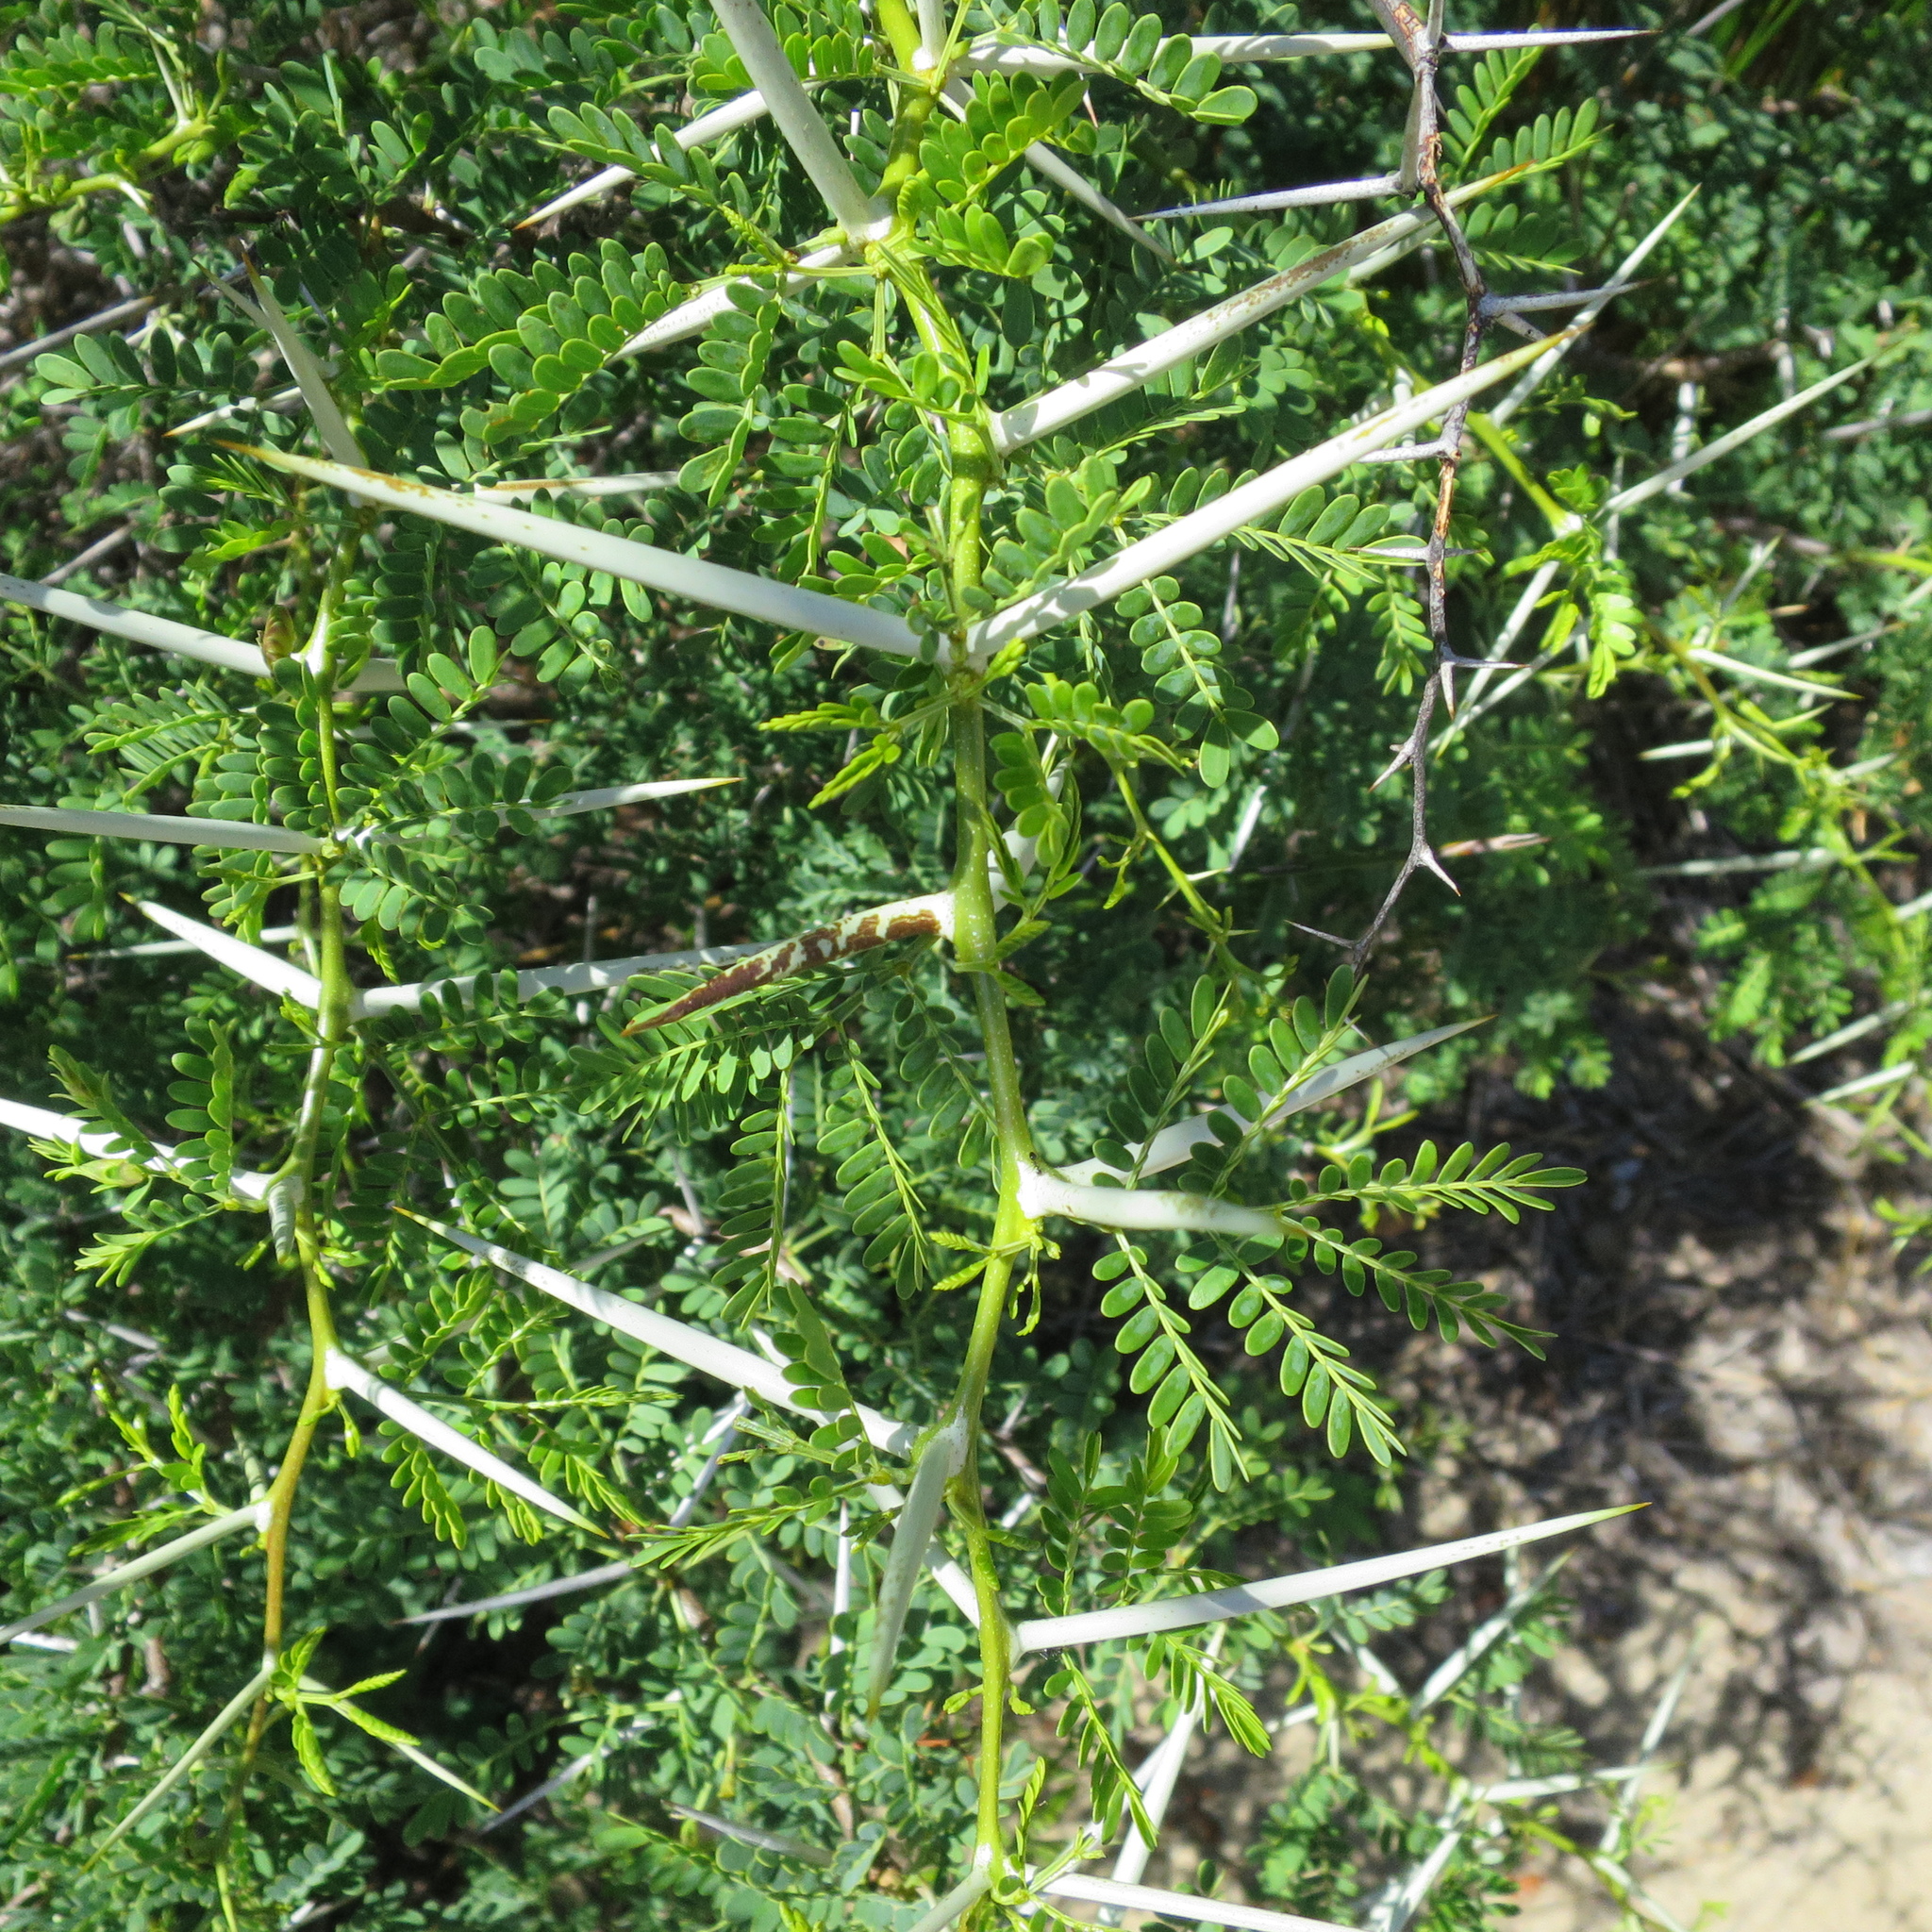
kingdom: Plantae
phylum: Tracheophyta
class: Magnoliopsida
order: Fabales
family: Fabaceae
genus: Vachellia
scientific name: Vachellia karroo
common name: Sweet thorn
